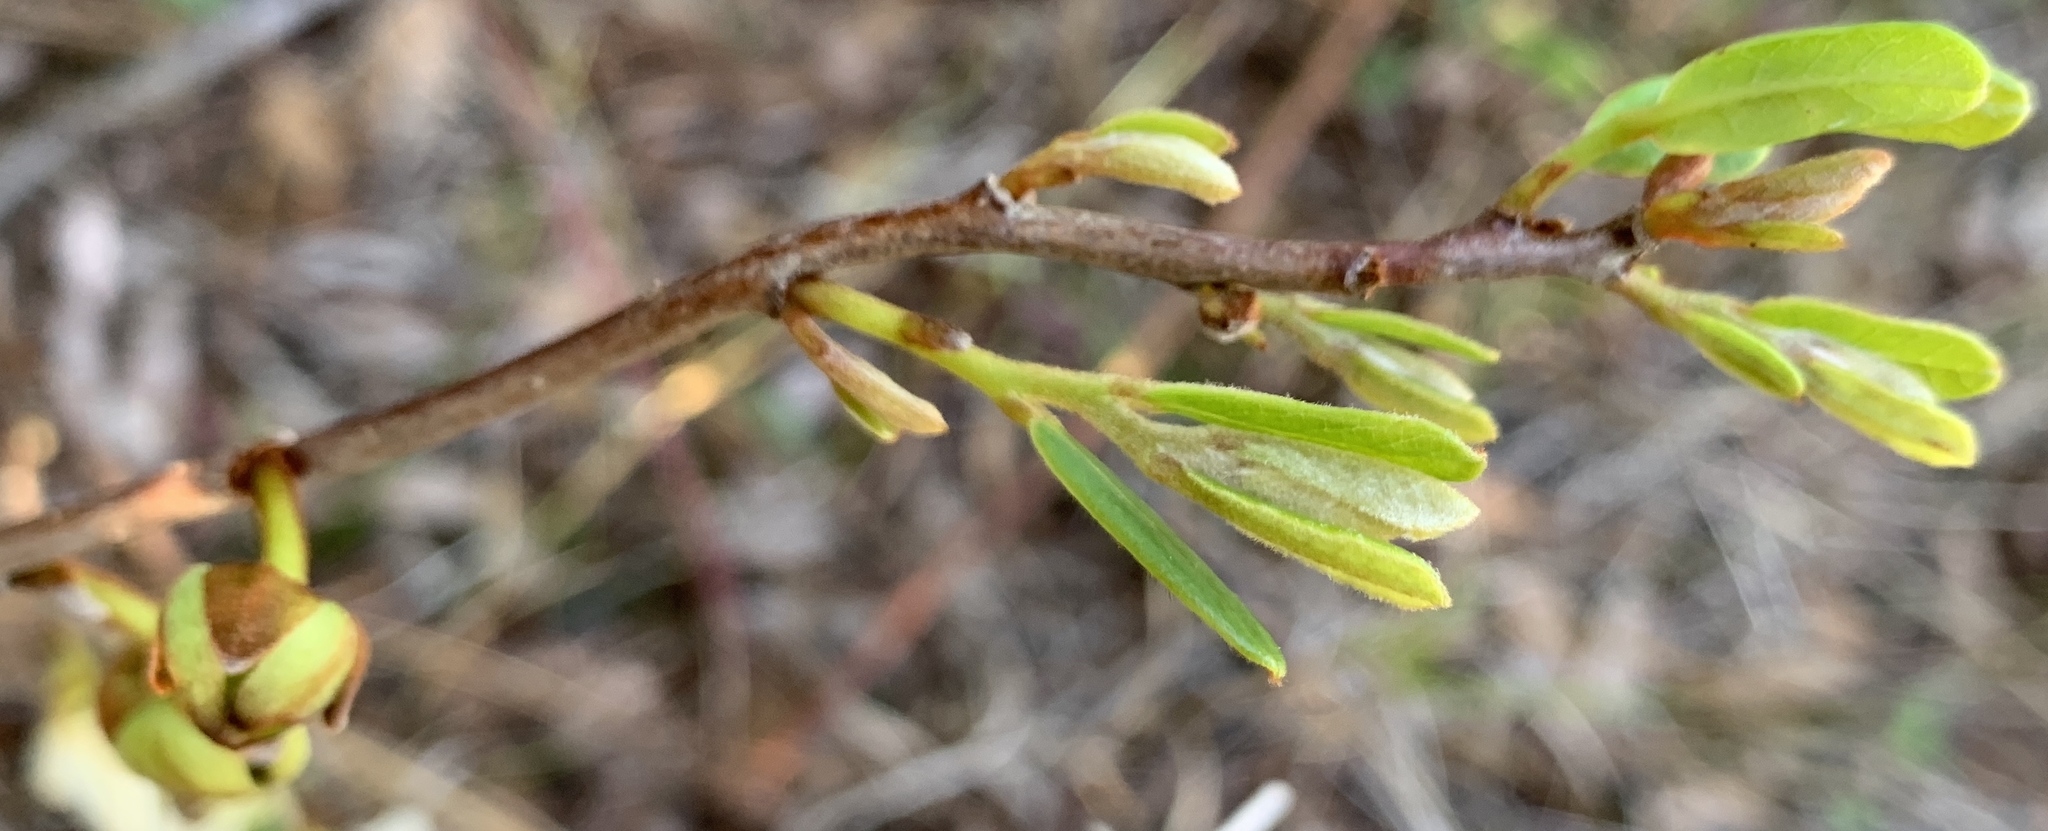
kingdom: Plantae
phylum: Tracheophyta
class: Magnoliopsida
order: Magnoliales
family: Annonaceae
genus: Asimina
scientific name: Asimina reticulata
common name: Flag pawpaw
